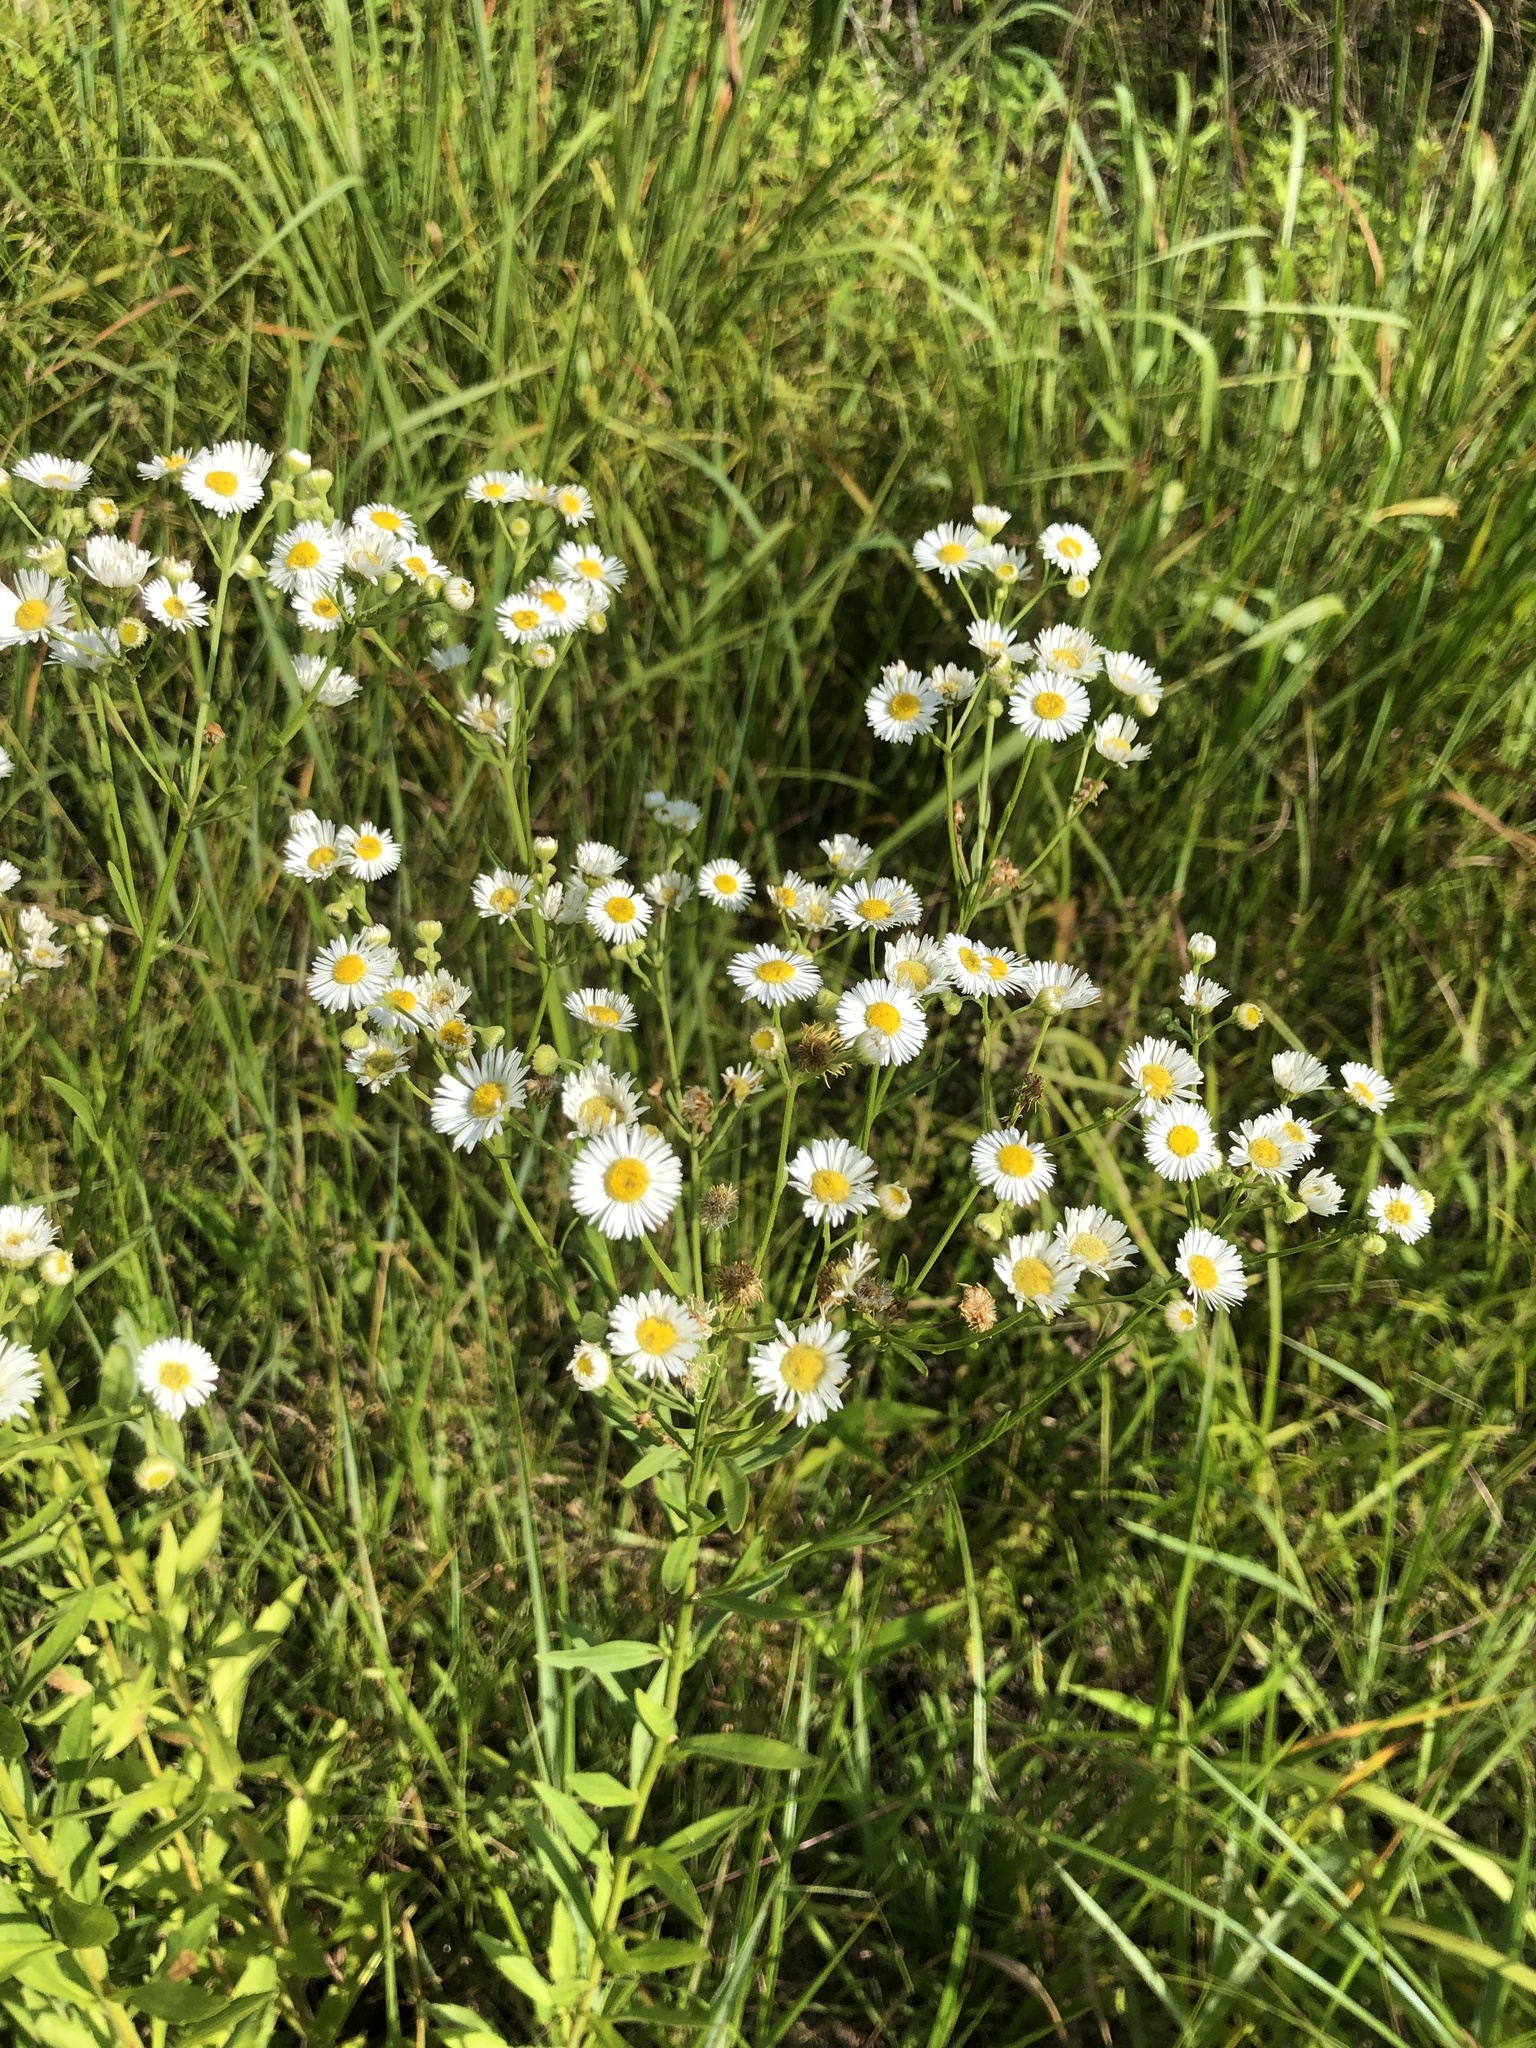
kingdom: Plantae
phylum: Tracheophyta
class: Magnoliopsida
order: Asterales
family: Asteraceae
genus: Erigeron
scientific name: Erigeron annuus
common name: Tall fleabane
